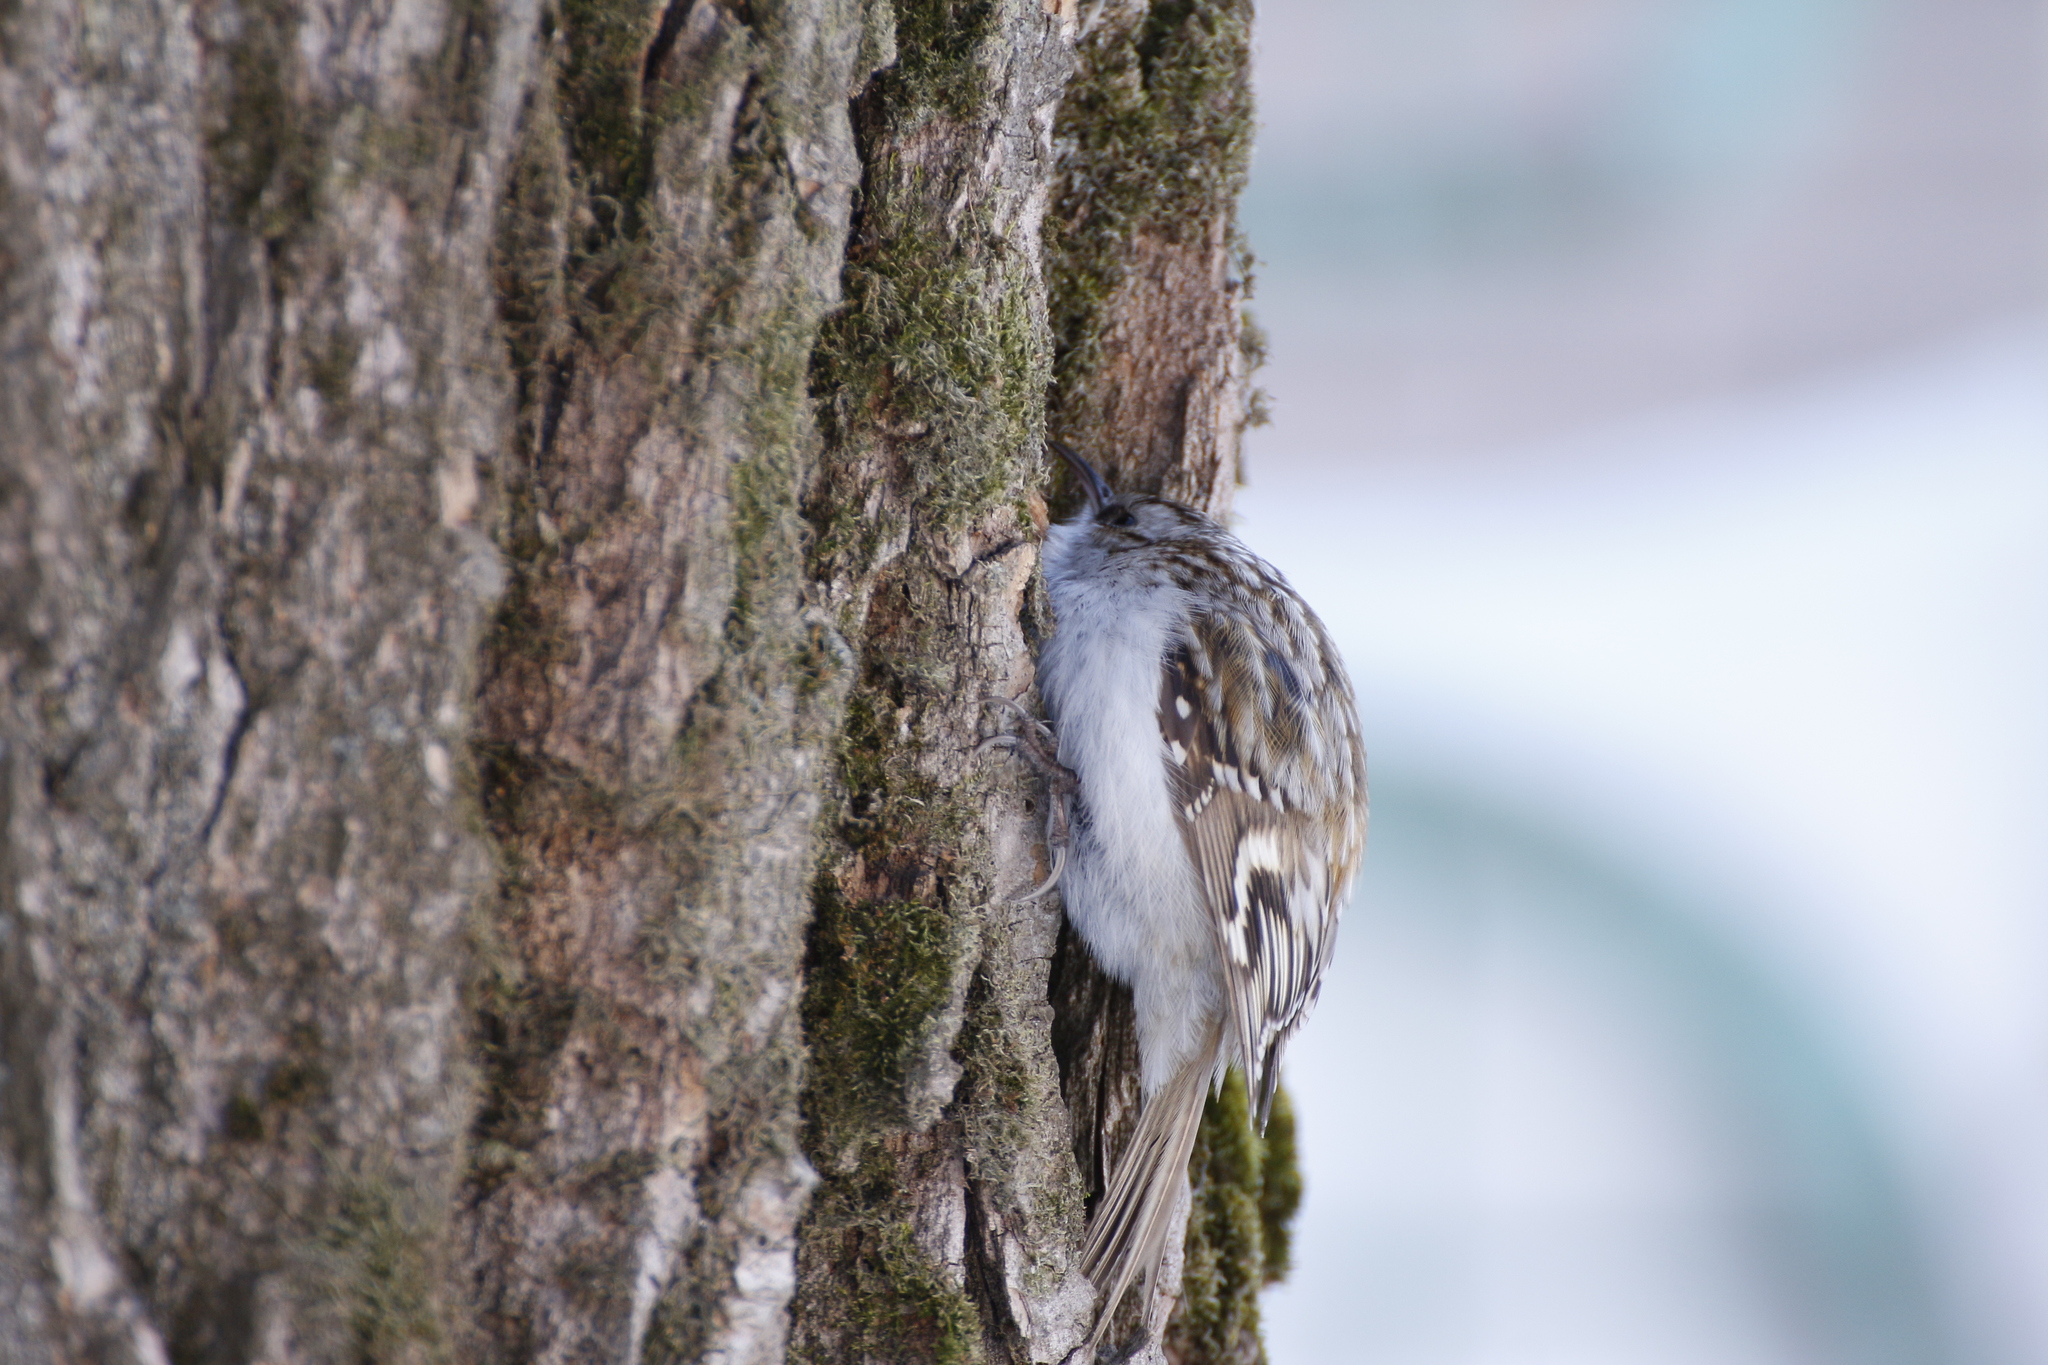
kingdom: Animalia
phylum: Chordata
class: Aves
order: Passeriformes
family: Certhiidae
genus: Certhia
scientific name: Certhia familiaris
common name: Eurasian treecreeper
